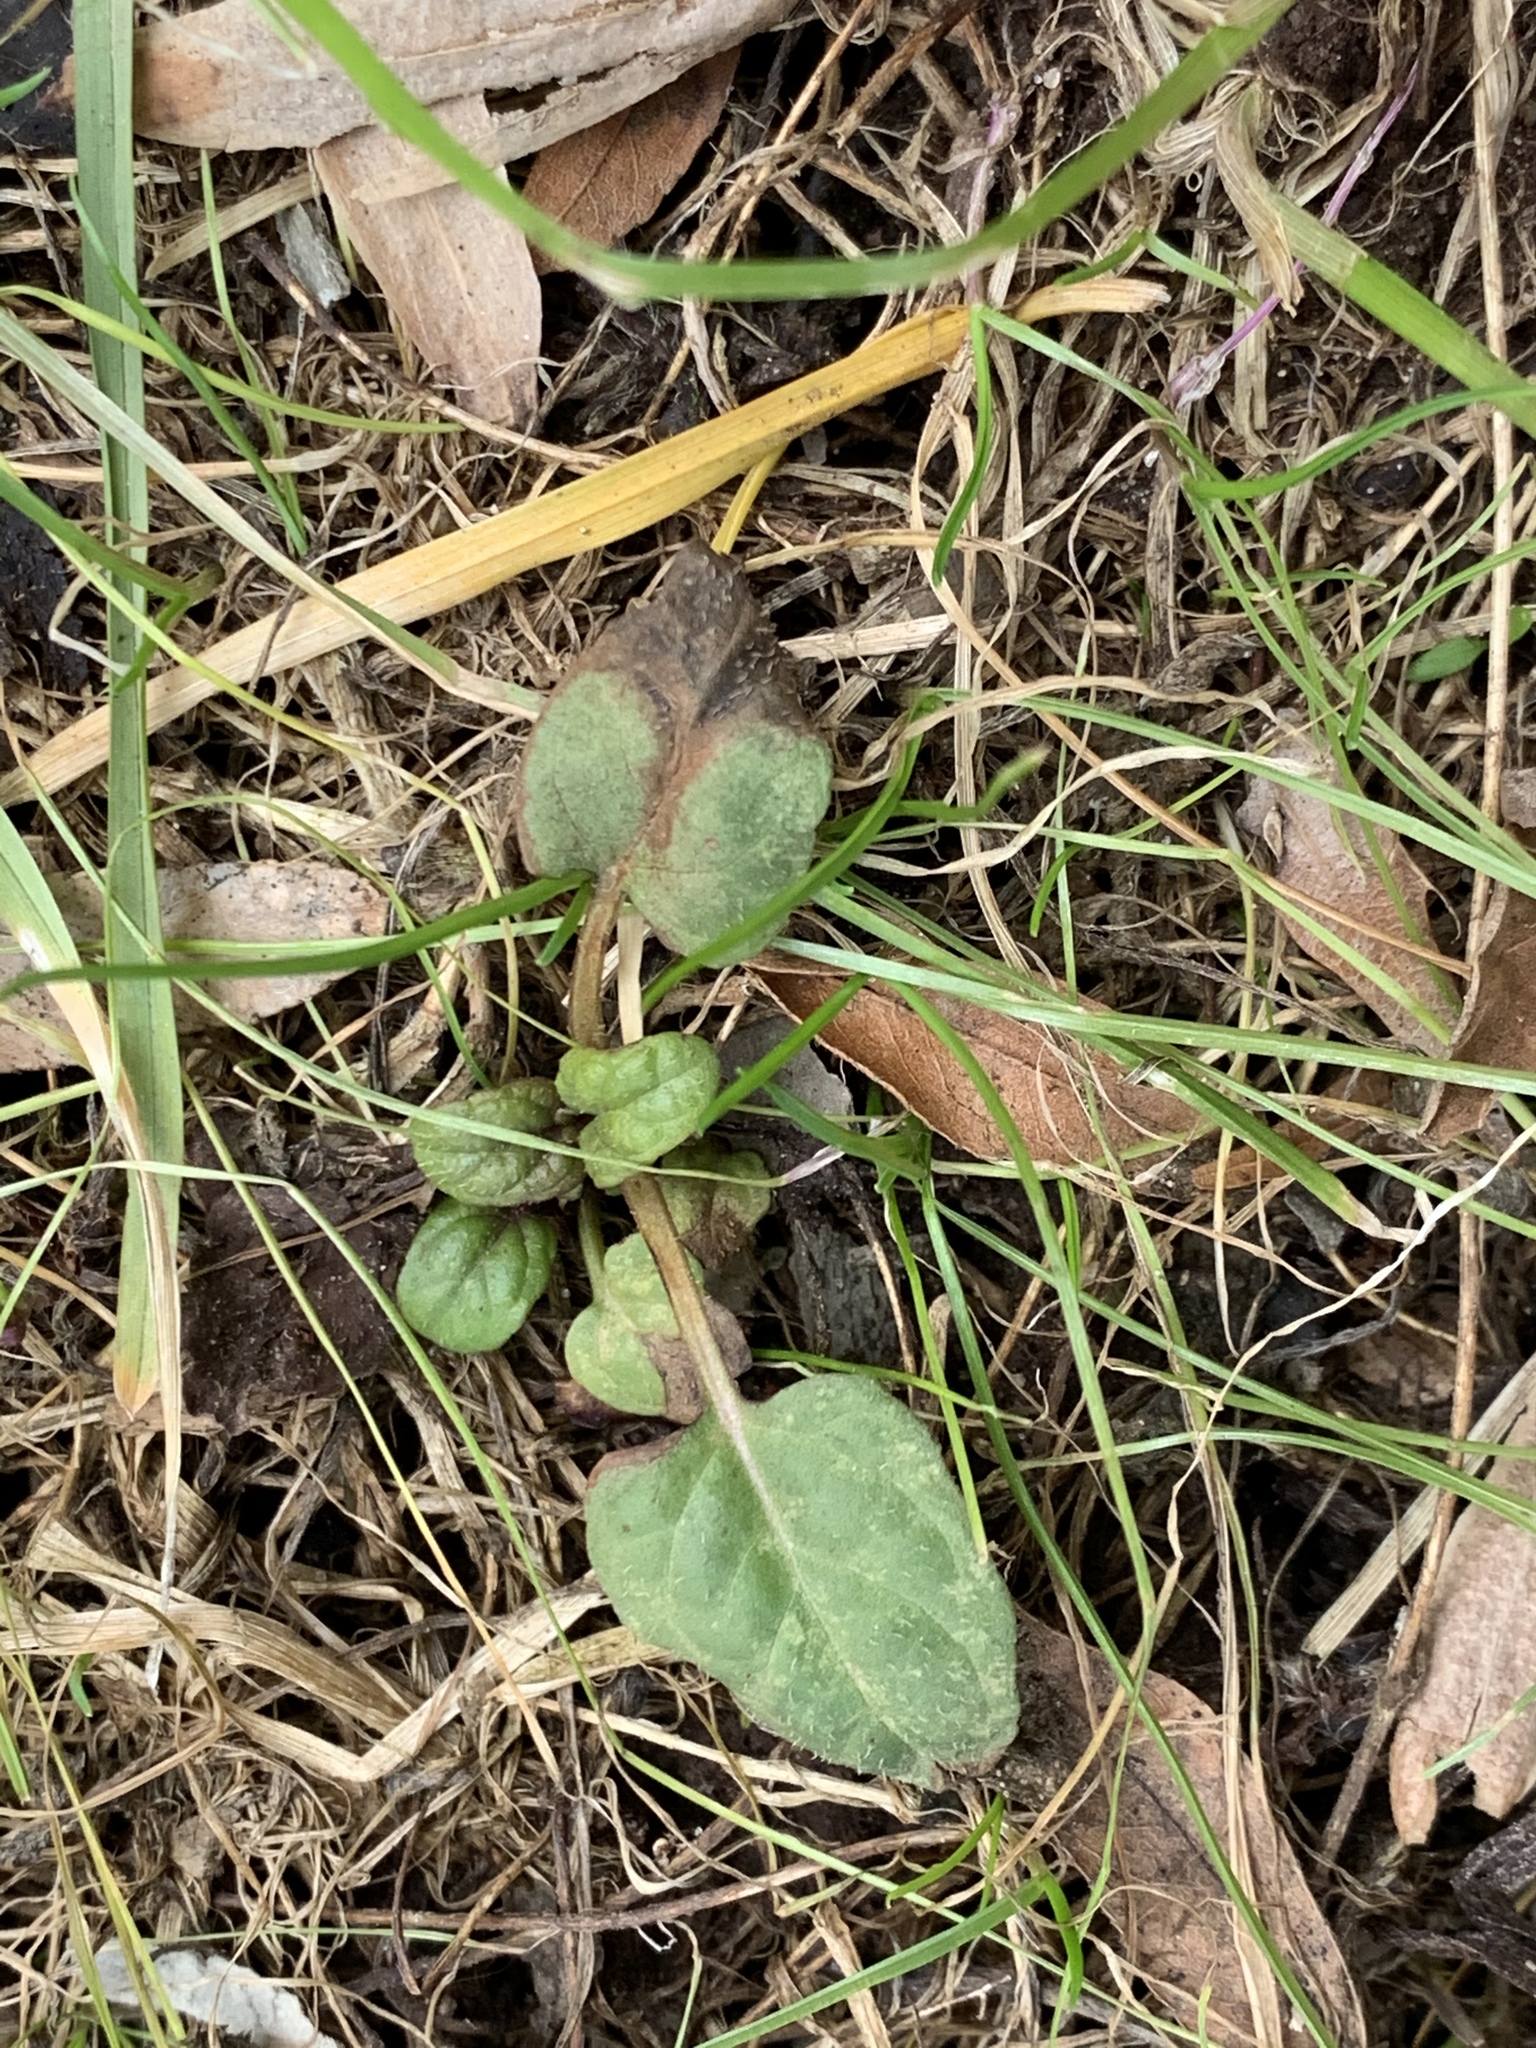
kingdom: Plantae
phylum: Tracheophyta
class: Magnoliopsida
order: Lamiales
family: Lamiaceae
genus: Prunella
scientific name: Prunella vulgaris
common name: Heal-all
